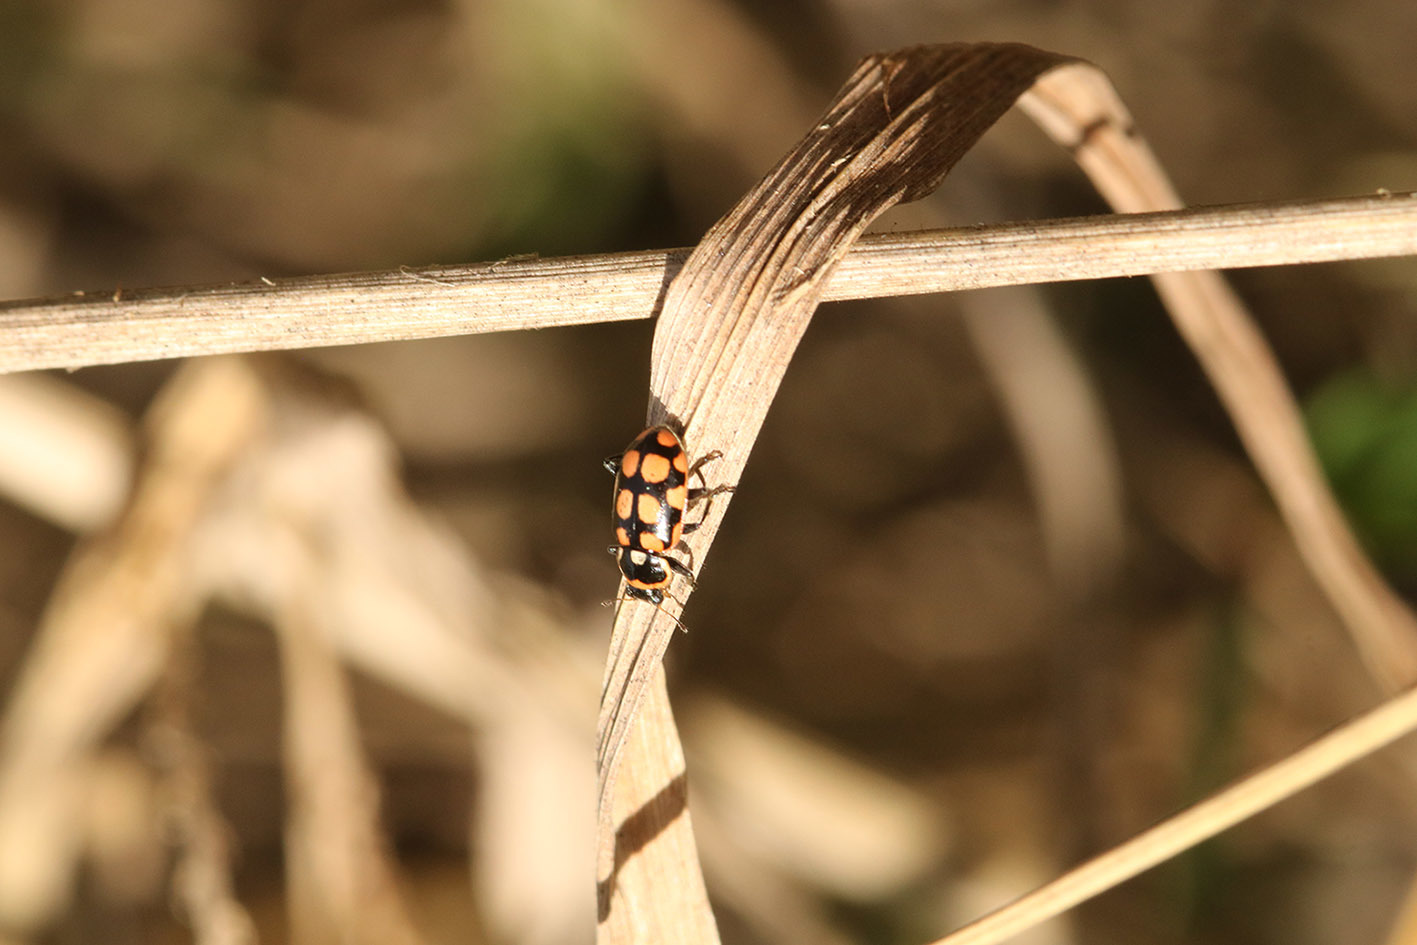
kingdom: Animalia
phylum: Arthropoda
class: Insecta
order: Coleoptera
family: Coccinellidae
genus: Eriopis
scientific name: Eriopis
